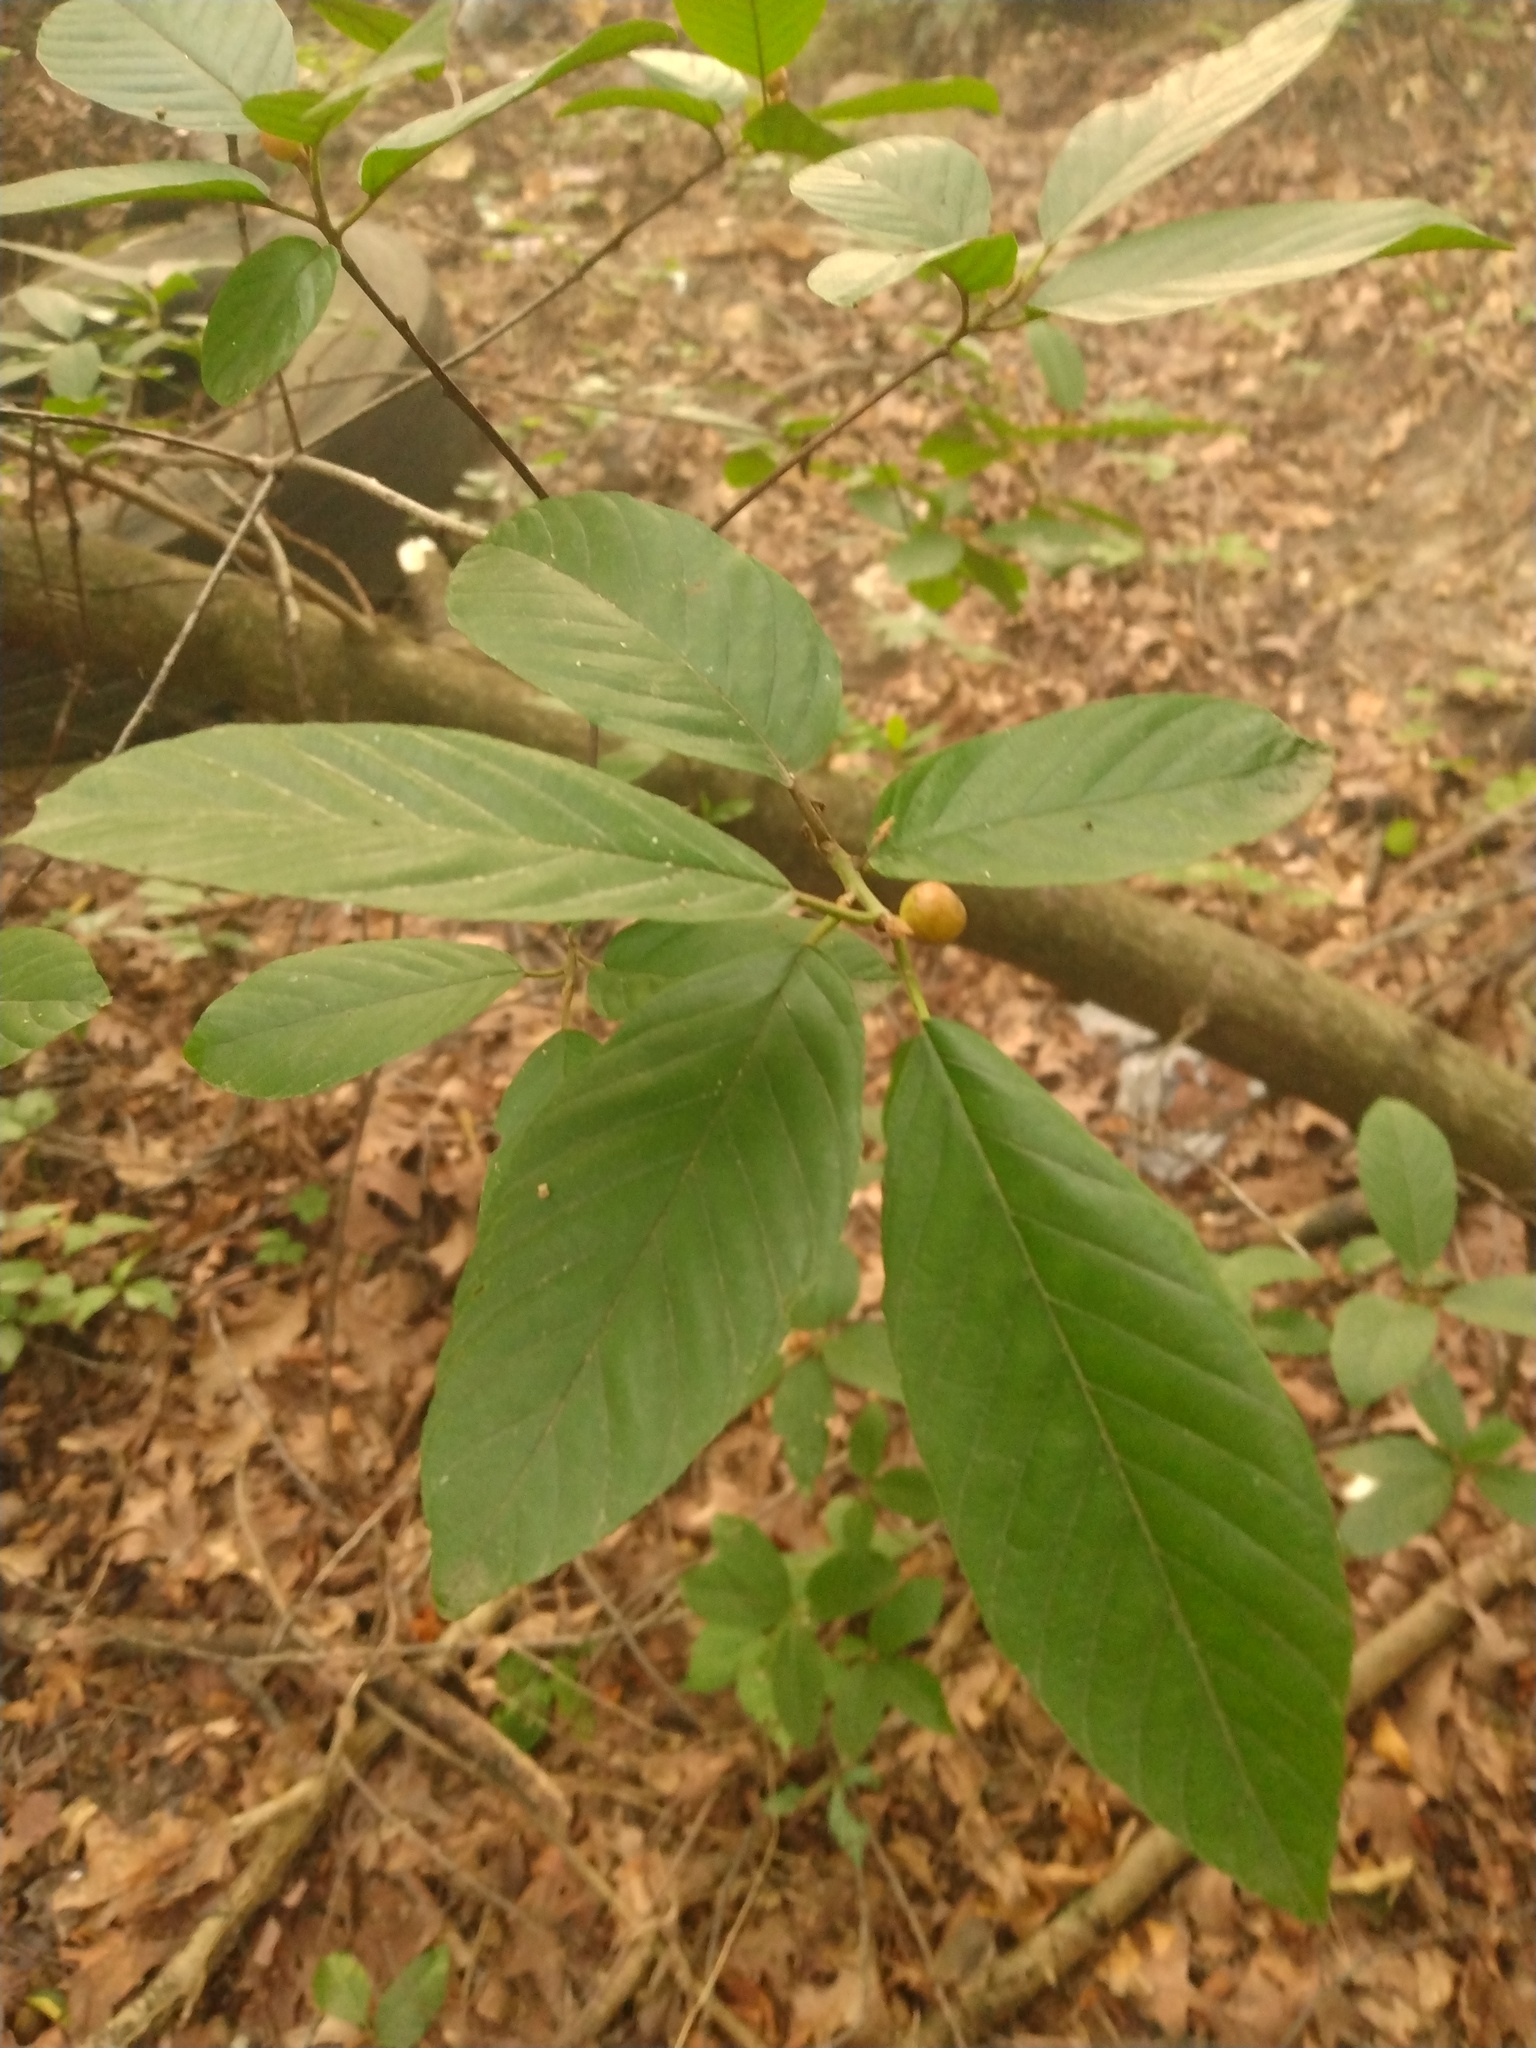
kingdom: Plantae
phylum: Tracheophyta
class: Magnoliopsida
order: Rosales
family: Rhamnaceae
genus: Frangula
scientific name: Frangula caroliniana
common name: Carolina buckthorn
